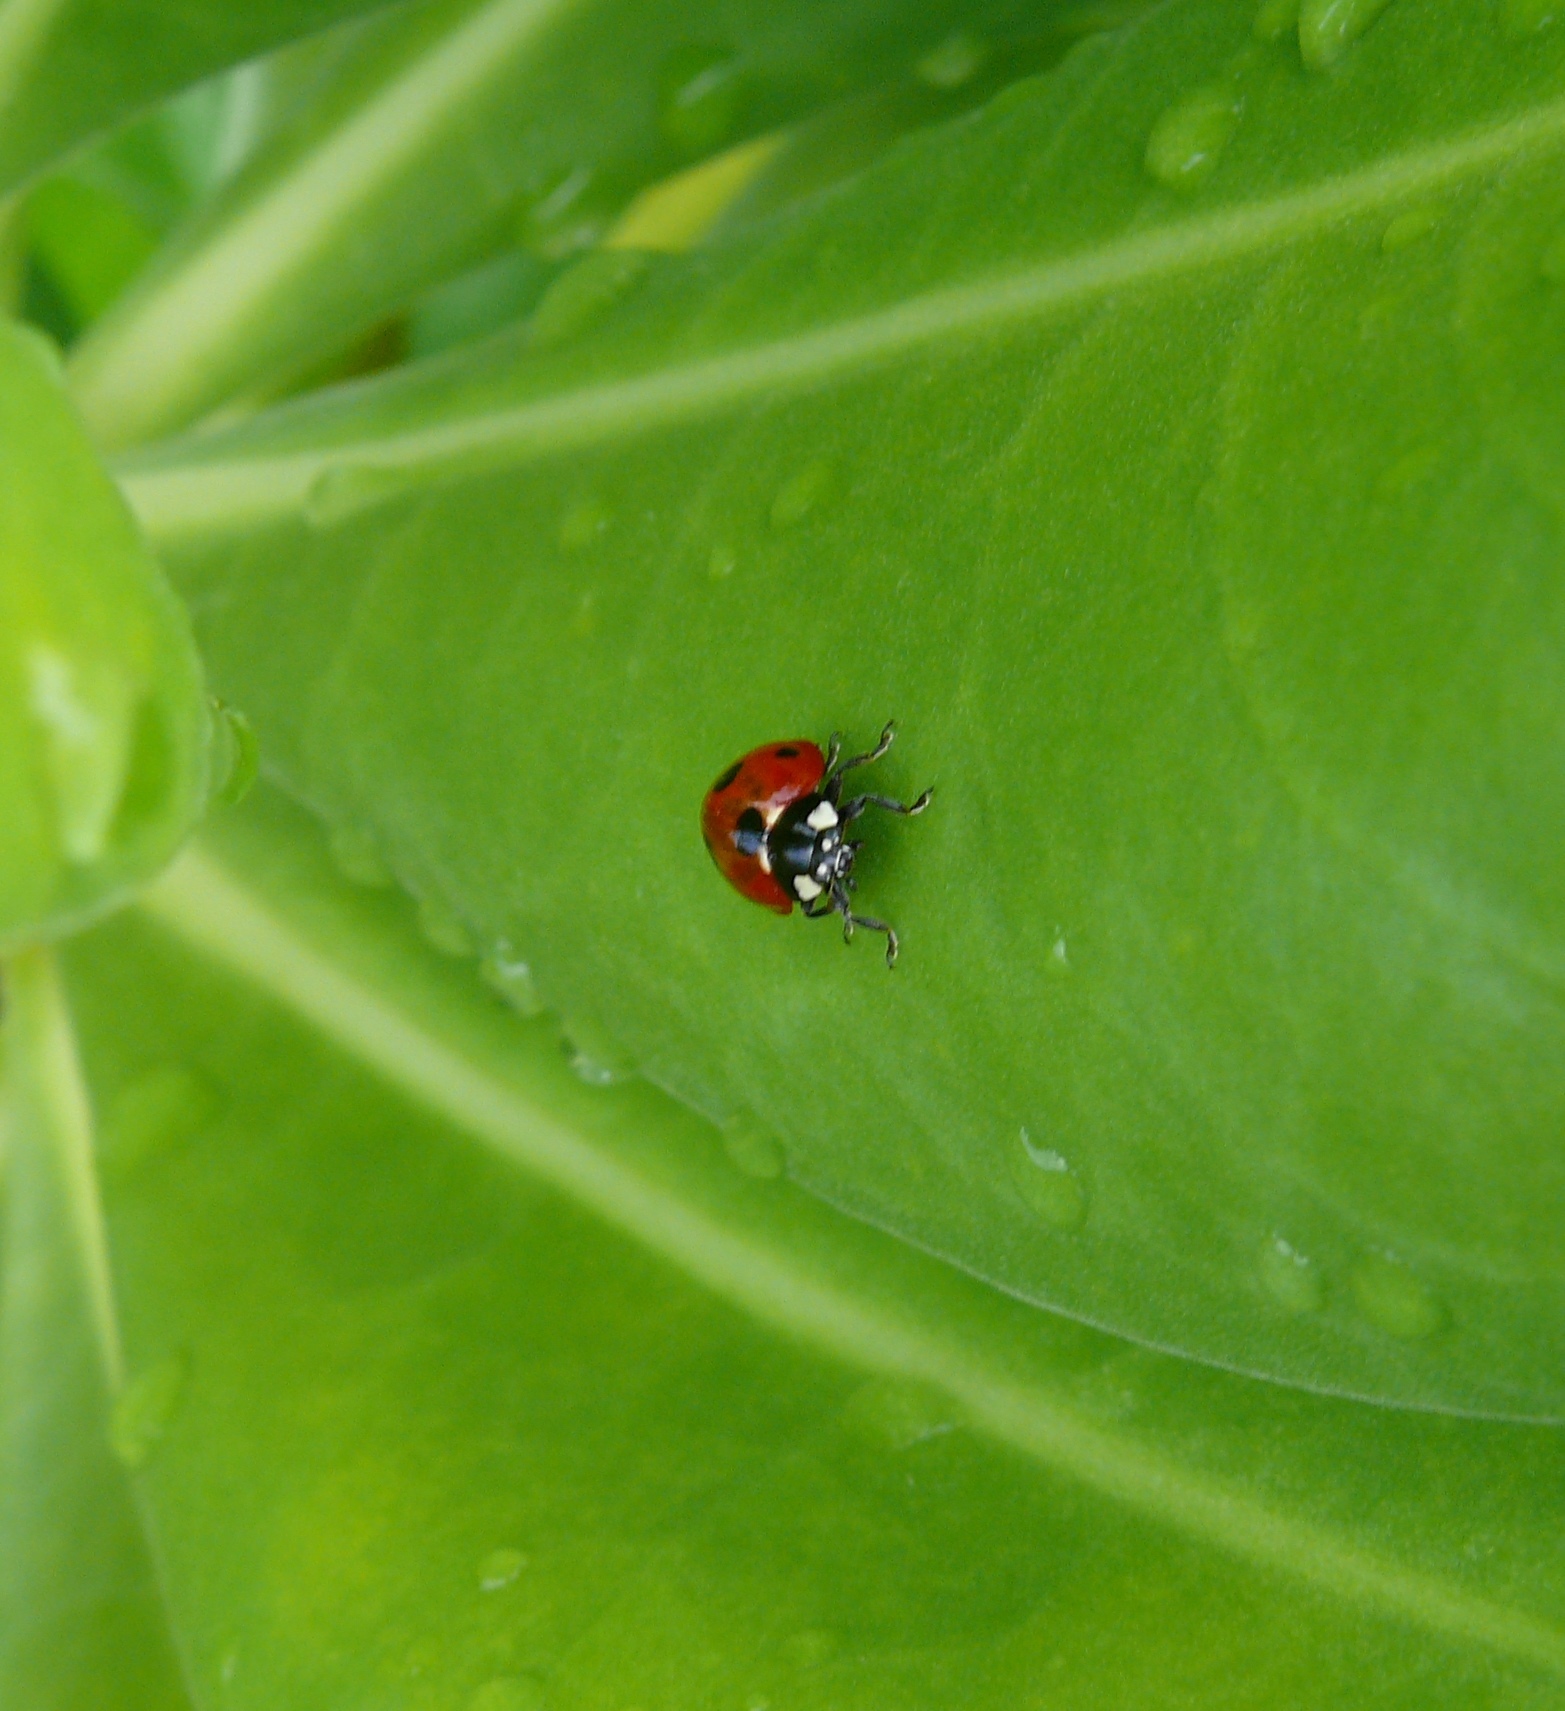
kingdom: Animalia
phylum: Arthropoda
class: Insecta
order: Coleoptera
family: Coccinellidae
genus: Coccinella
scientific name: Coccinella septempunctata
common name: Sevenspotted lady beetle
